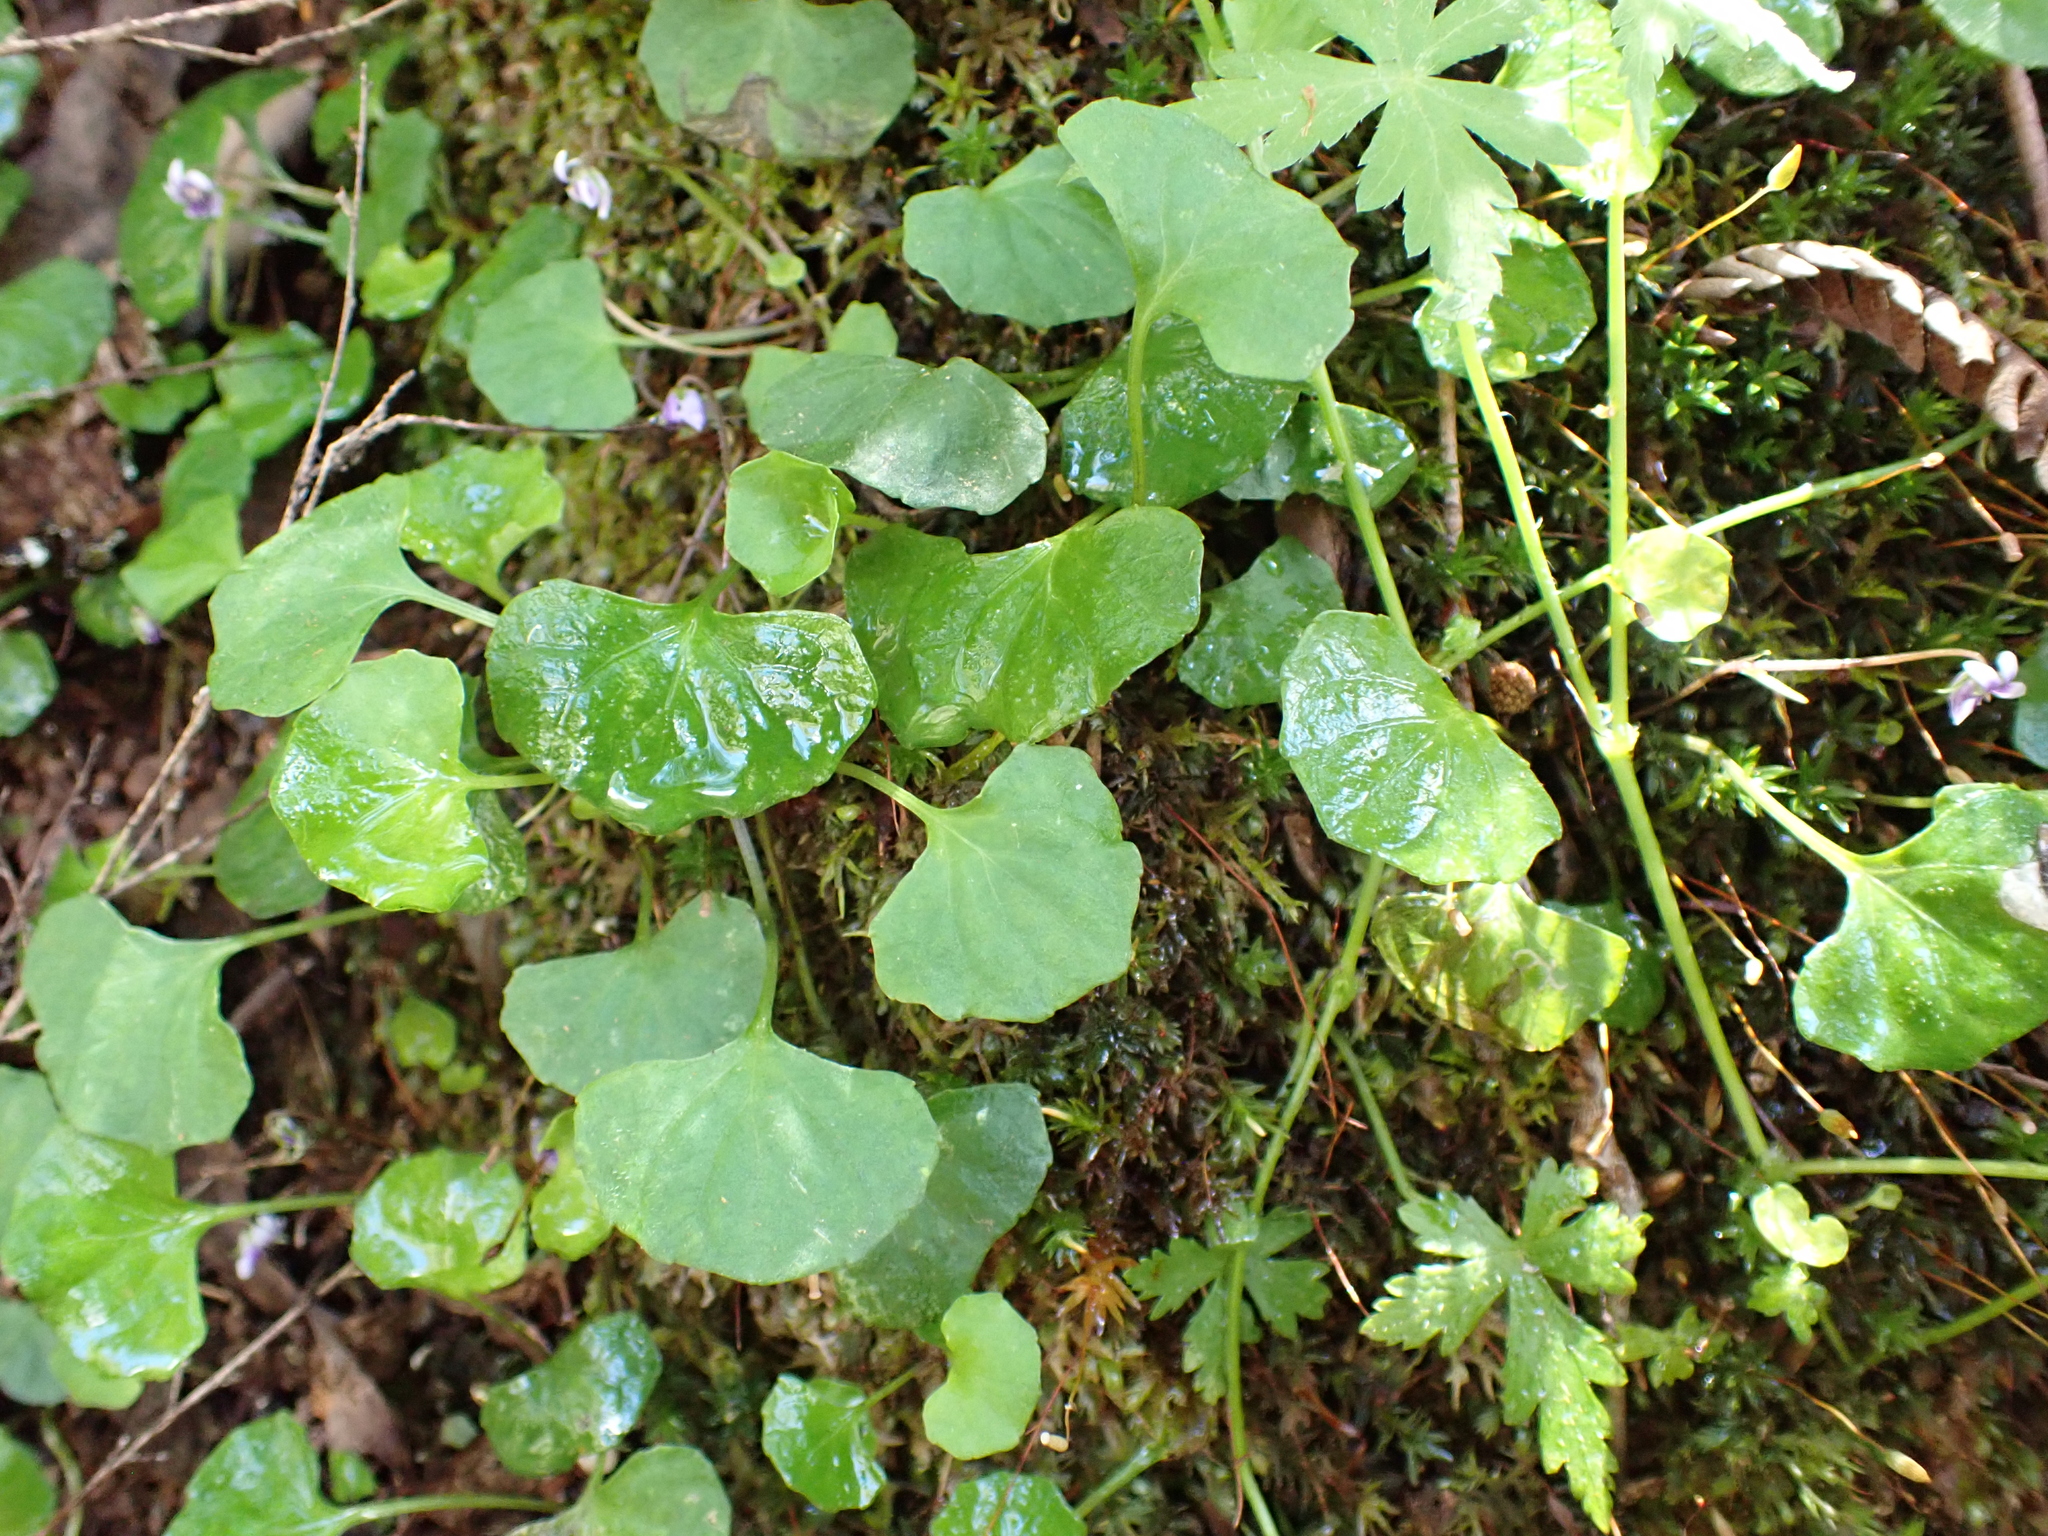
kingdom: Plantae
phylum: Tracheophyta
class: Magnoliopsida
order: Malpighiales
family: Violaceae
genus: Viola
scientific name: Viola hederacea
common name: Australian violet
